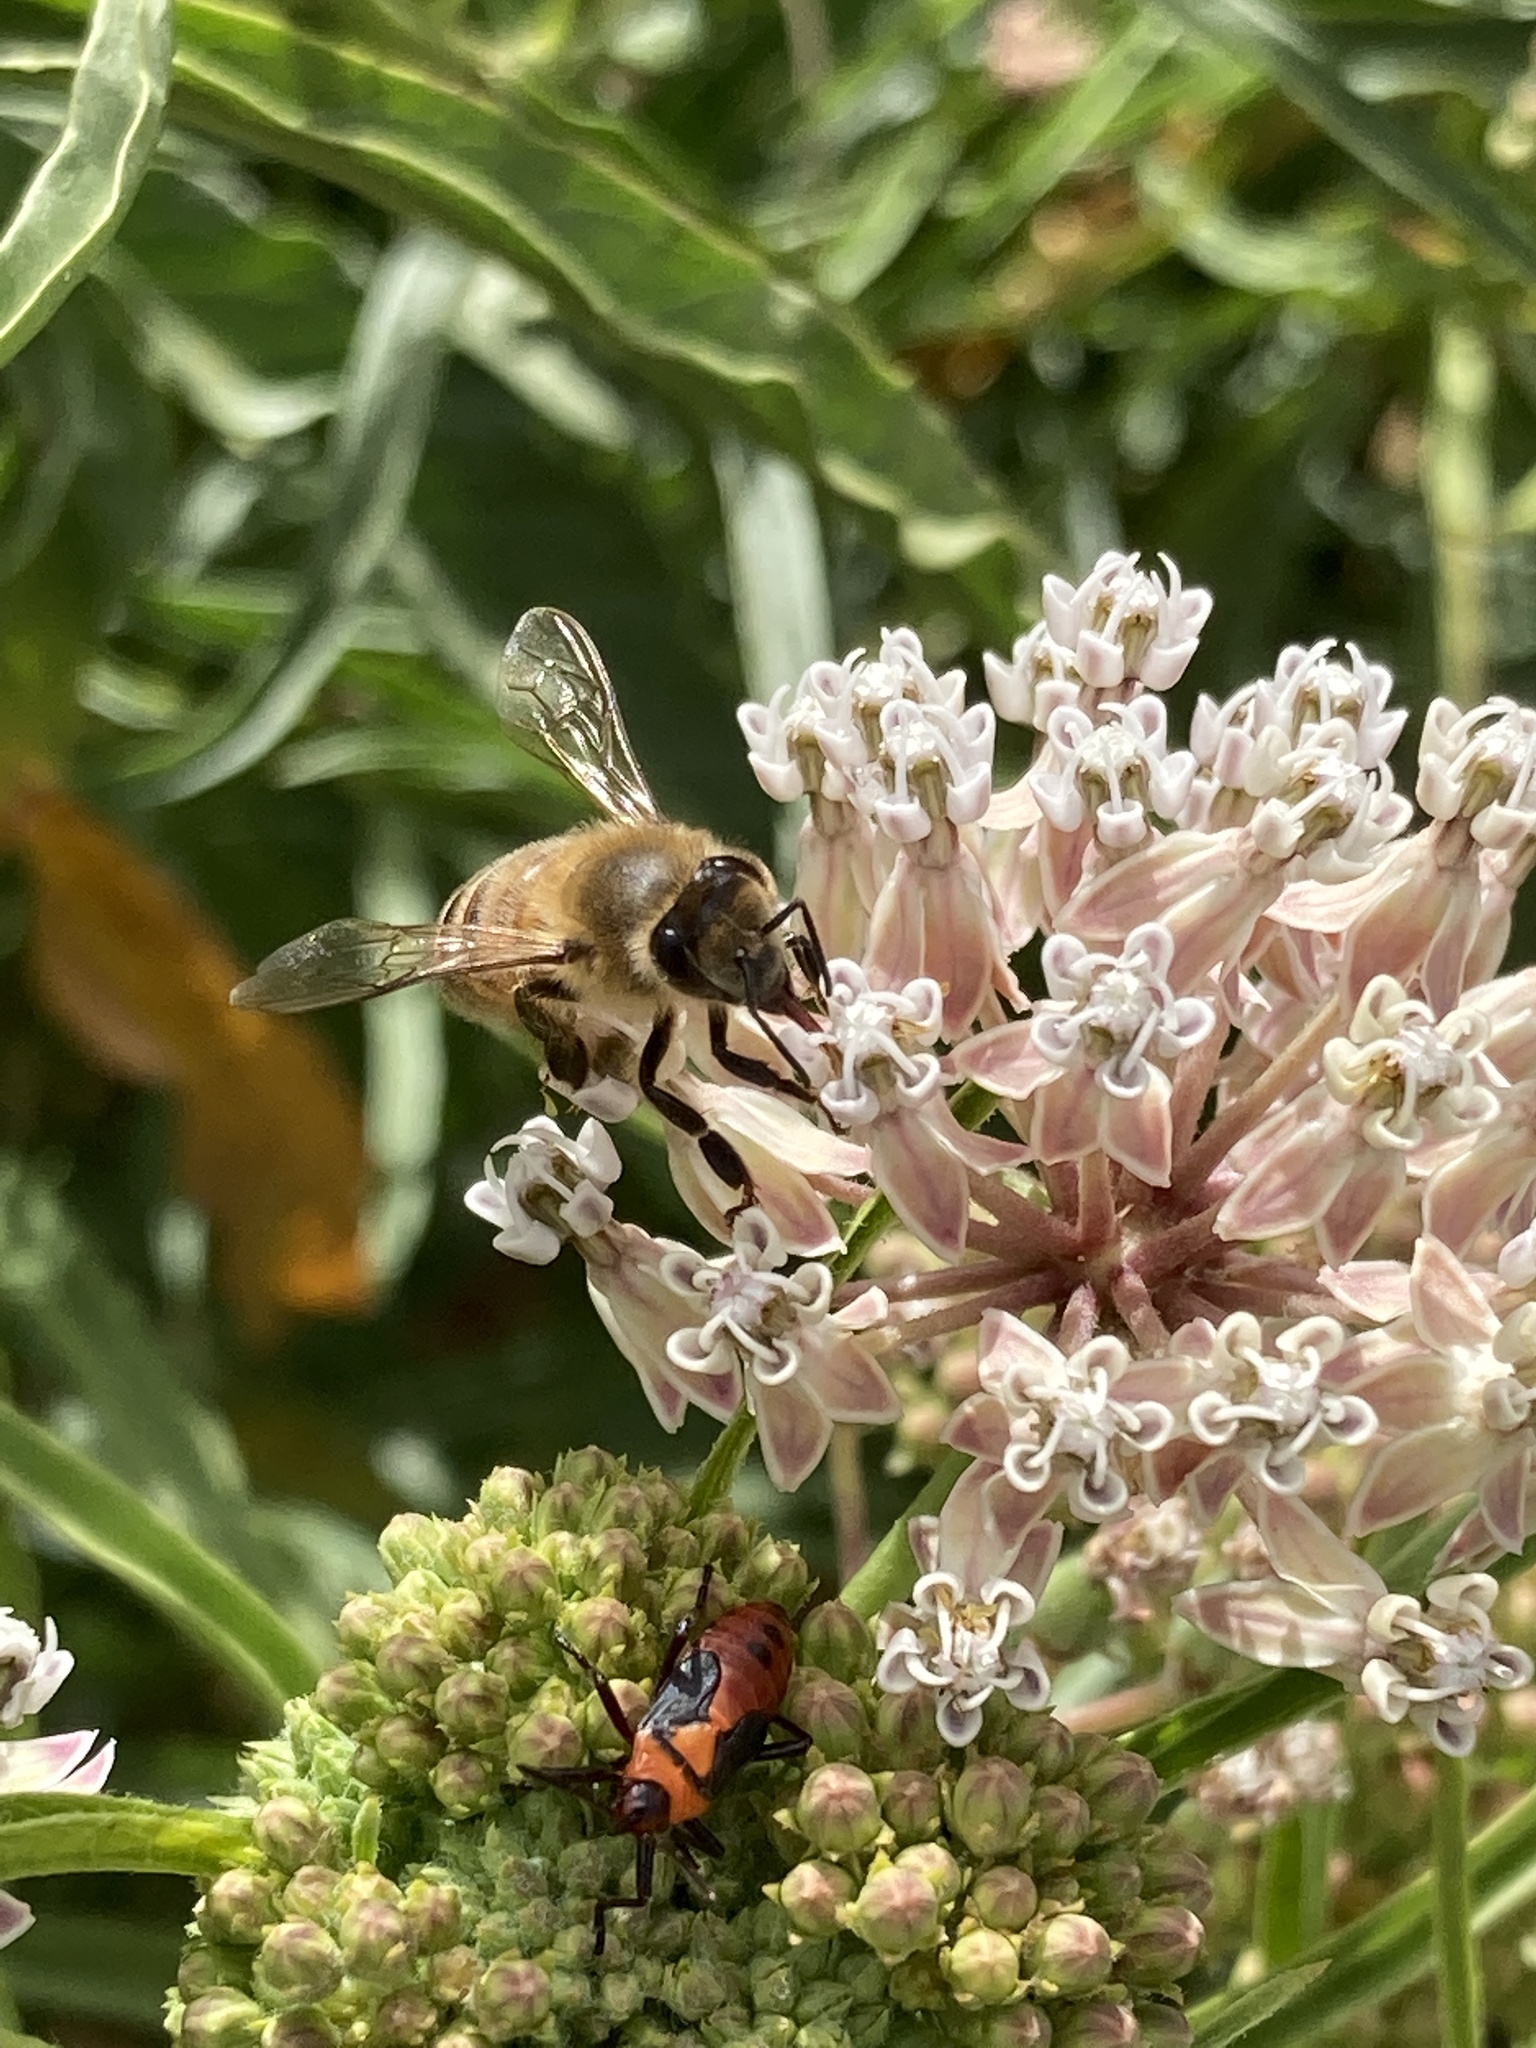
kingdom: Animalia
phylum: Arthropoda
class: Insecta
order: Hymenoptera
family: Apidae
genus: Apis
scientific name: Apis mellifera
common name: Honey bee
